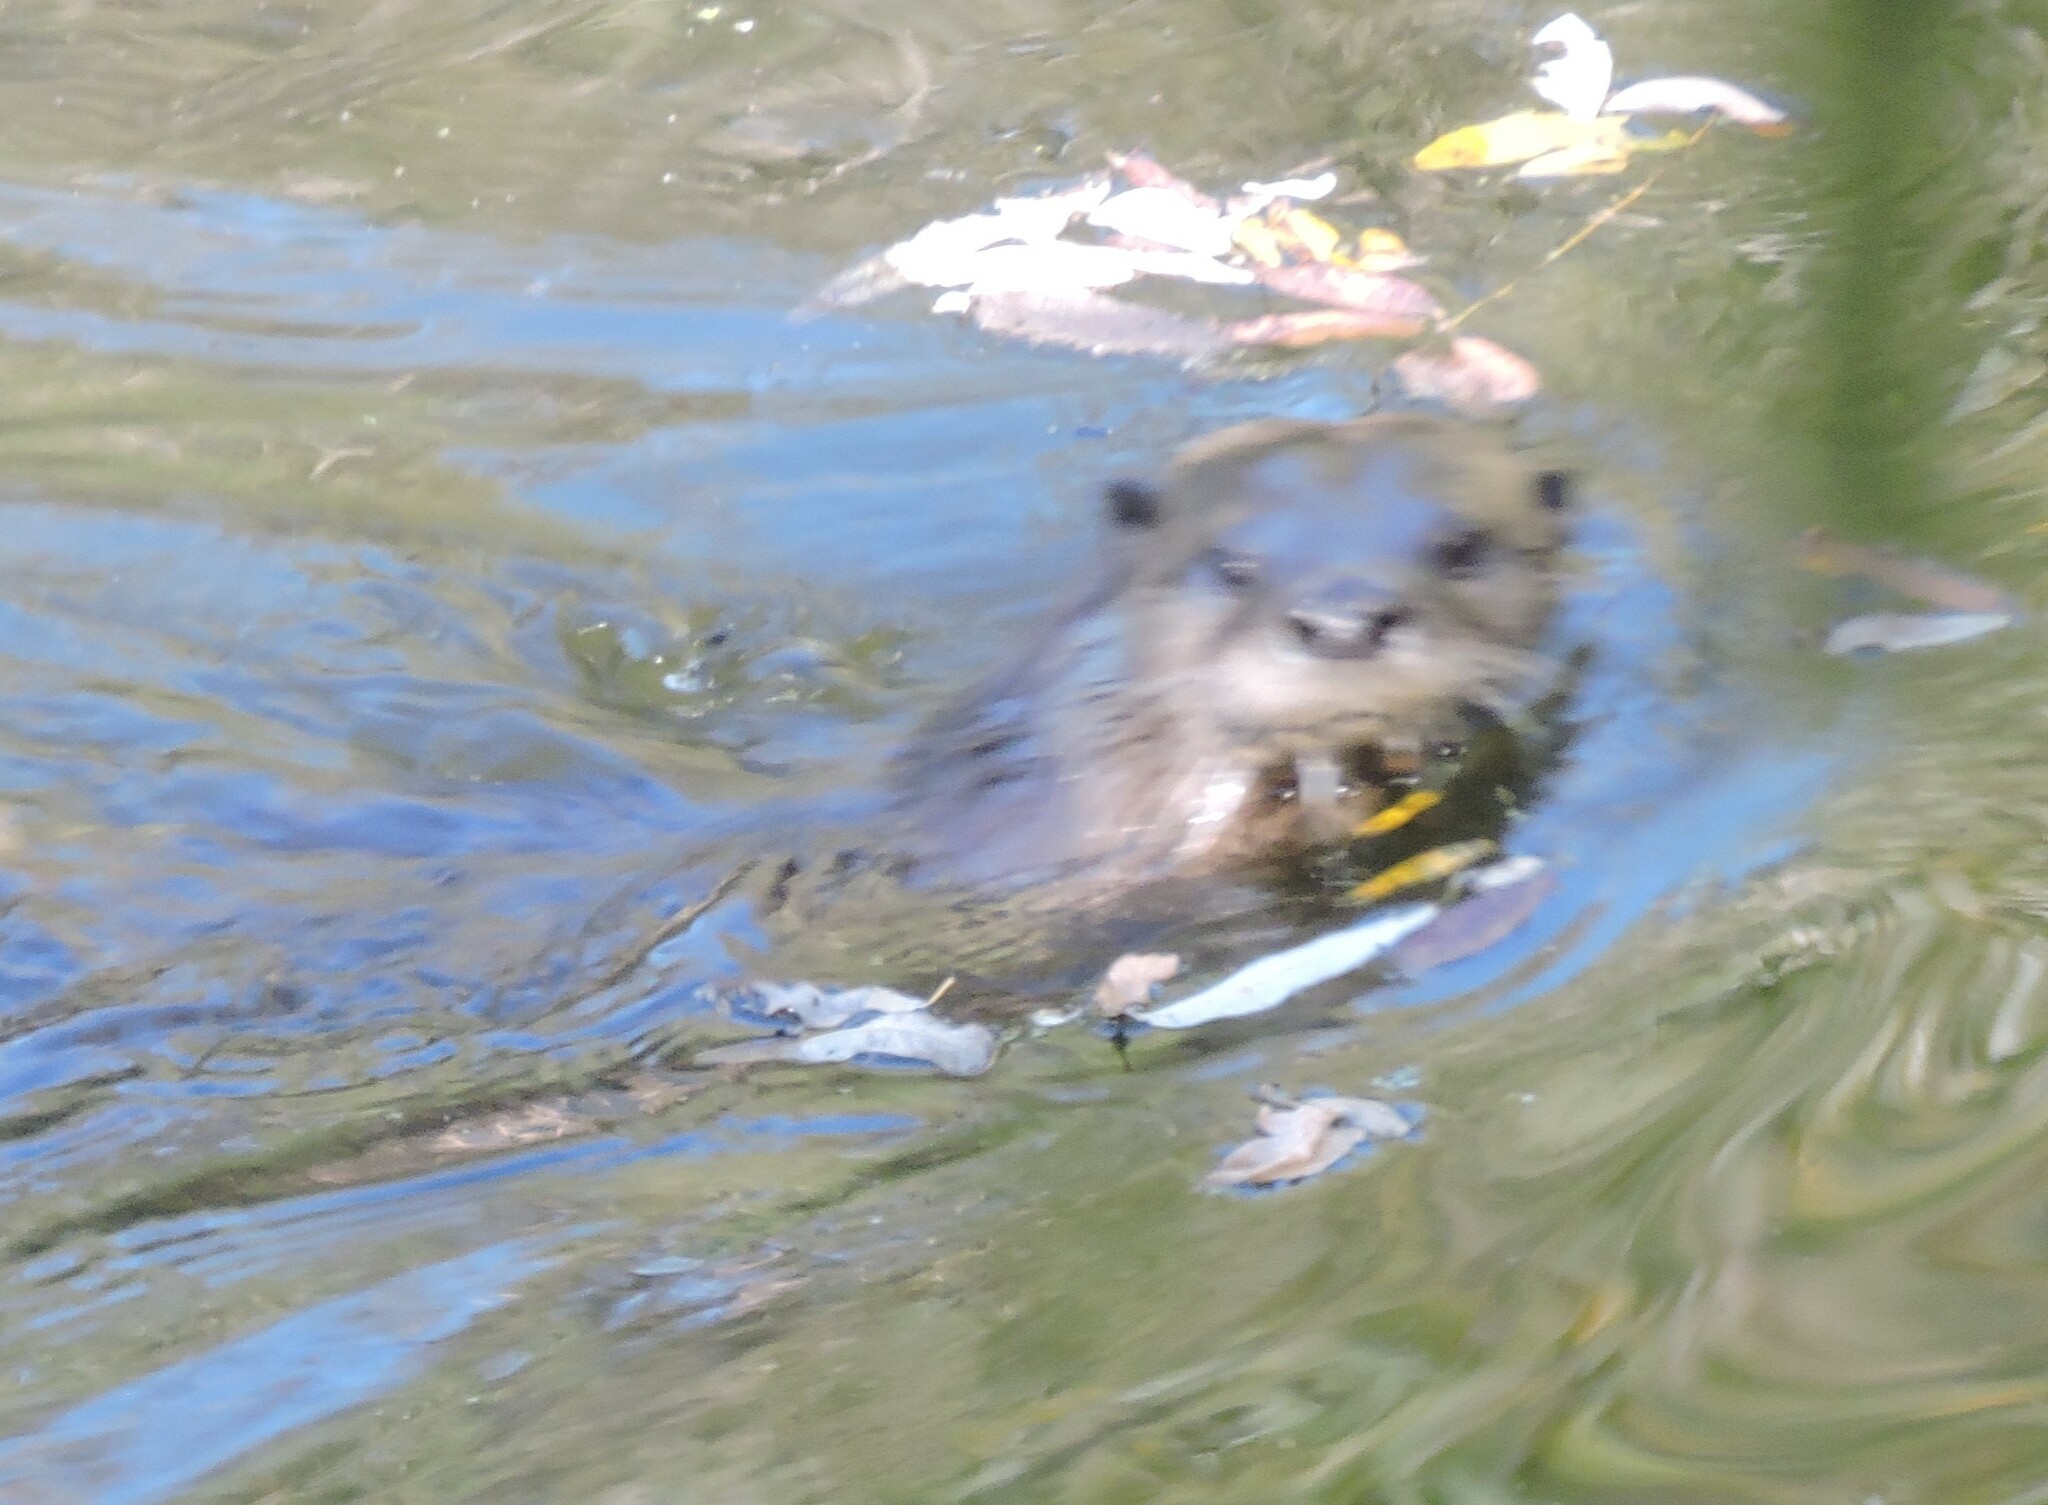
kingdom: Animalia
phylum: Chordata
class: Mammalia
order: Carnivora
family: Mustelidae
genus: Lontra
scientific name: Lontra canadensis
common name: North american river otter
